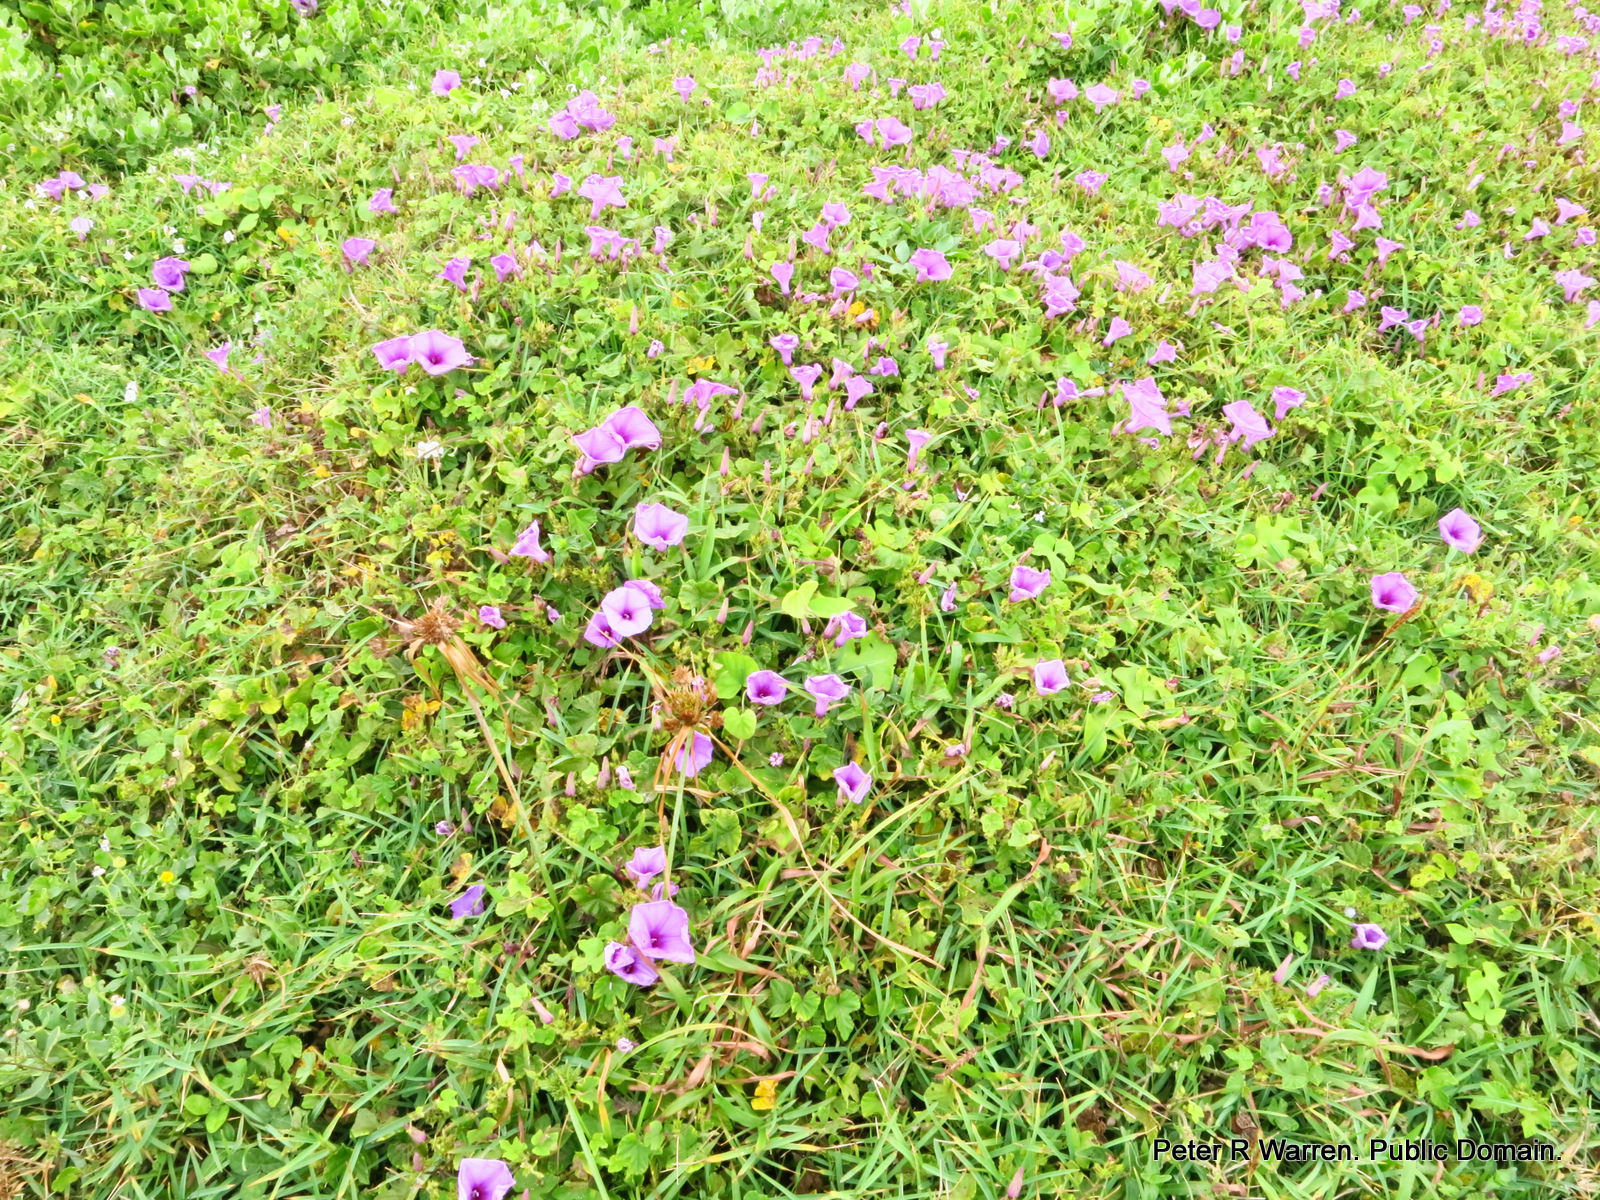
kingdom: Plantae
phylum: Tracheophyta
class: Magnoliopsida
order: Solanales
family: Convolvulaceae
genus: Ipomoea
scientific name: Ipomoea ficifolia
